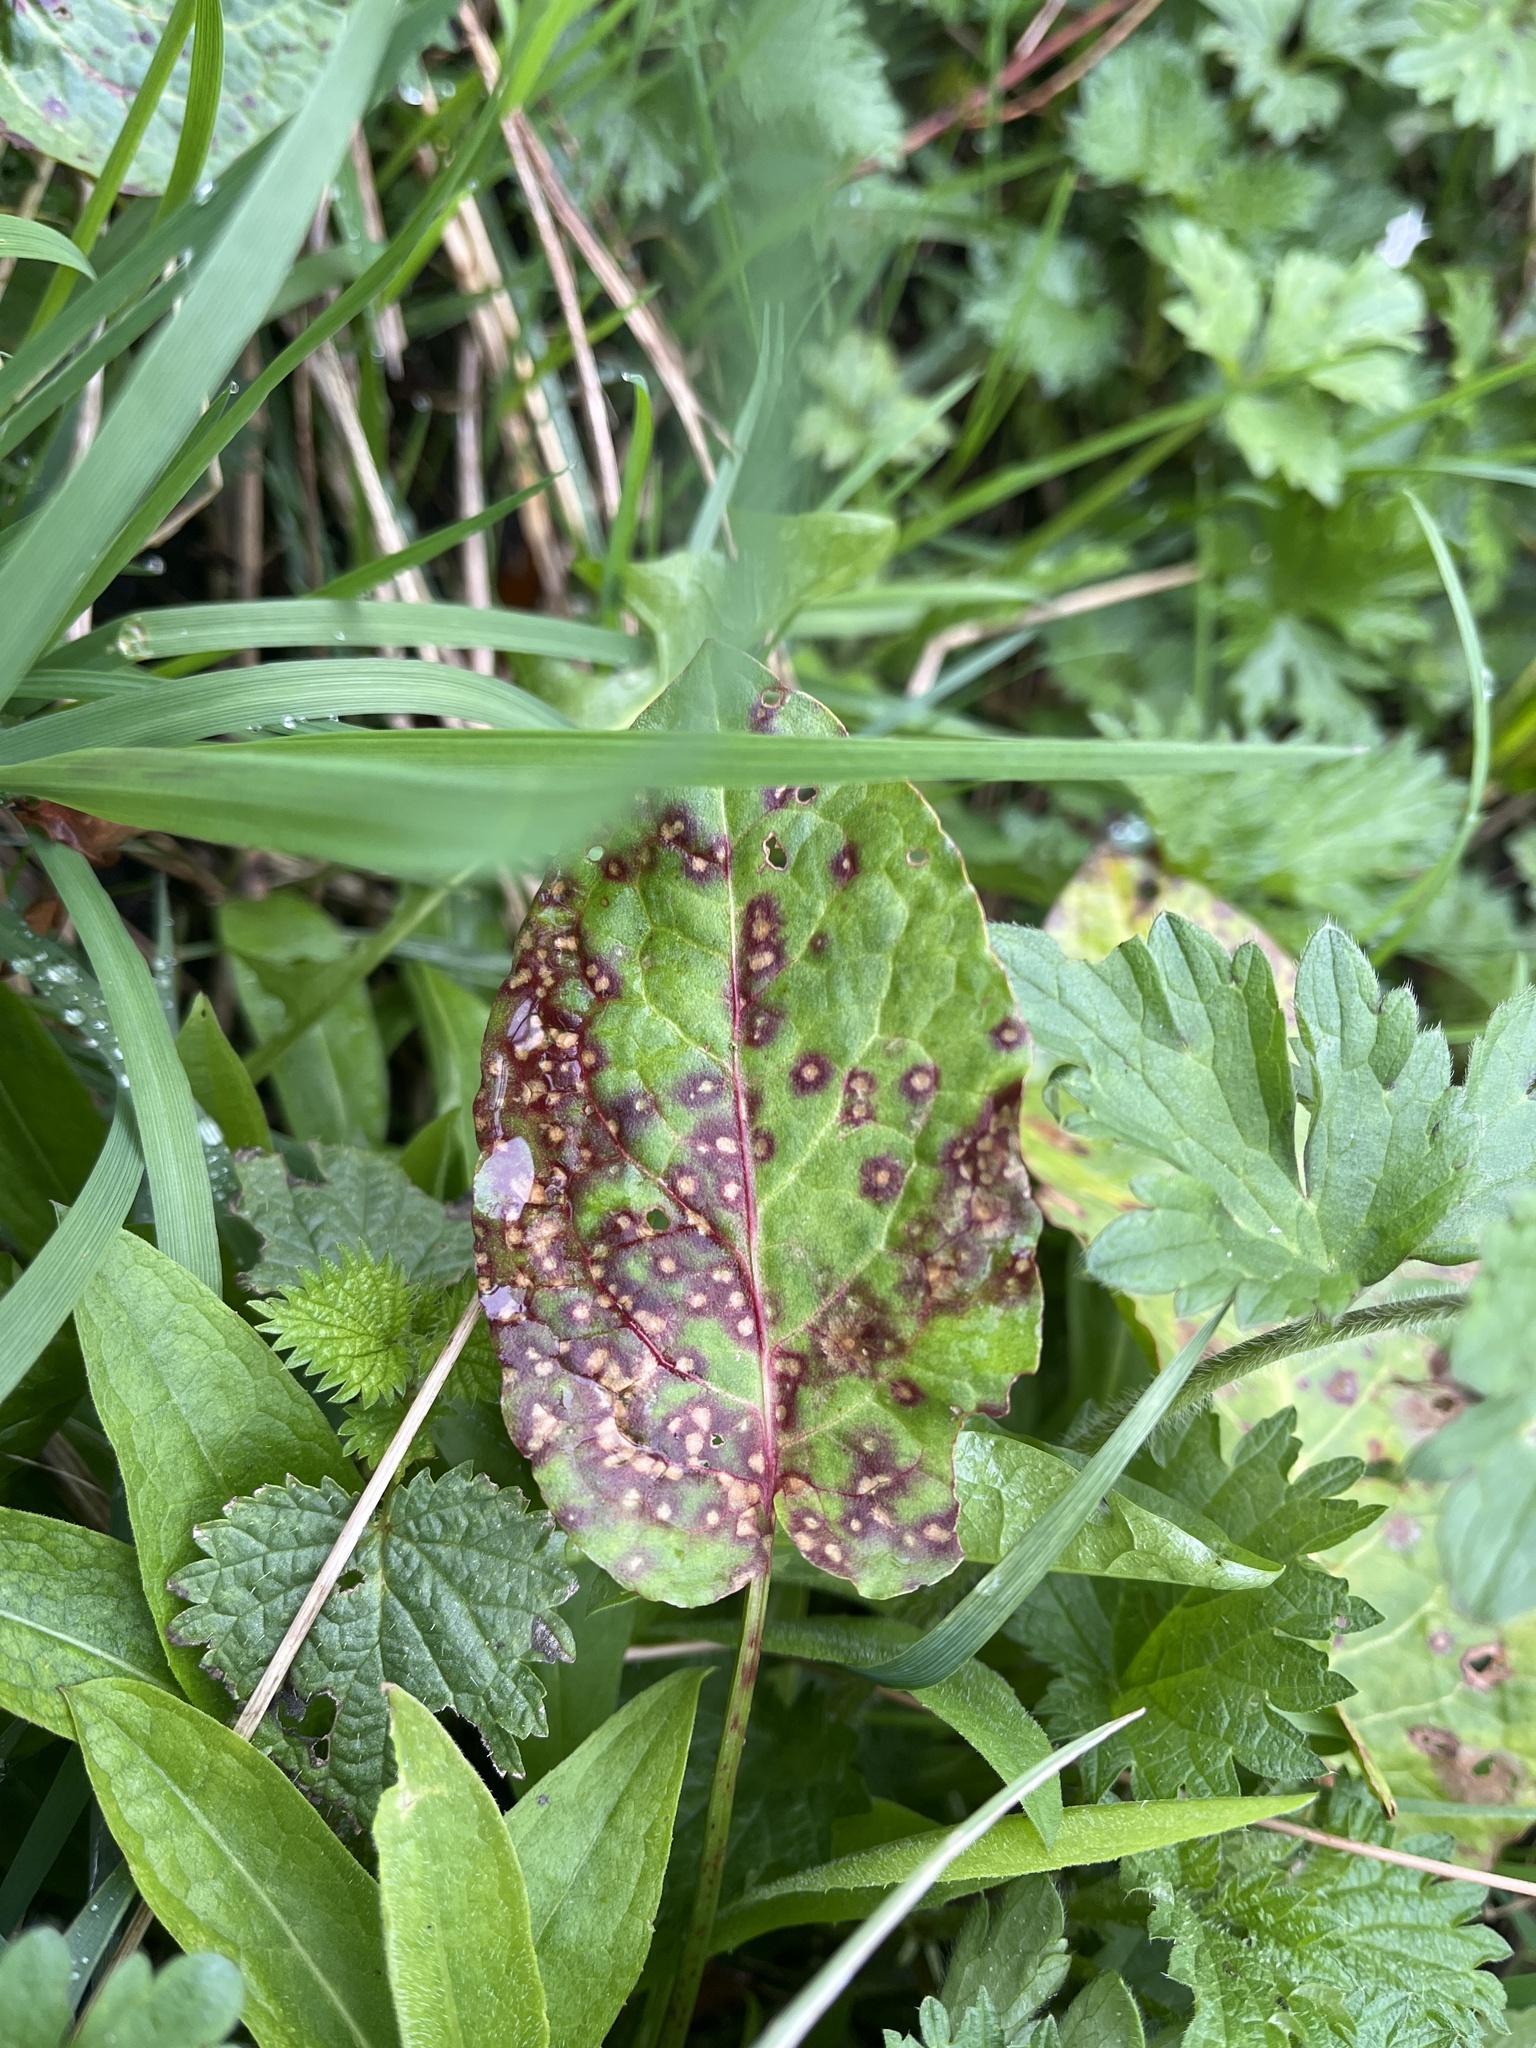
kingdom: Fungi
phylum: Ascomycota
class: Dothideomycetes
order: Mycosphaerellales
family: Mycosphaerellaceae
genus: Ramularia
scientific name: Ramularia rubella
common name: Red dock spot
